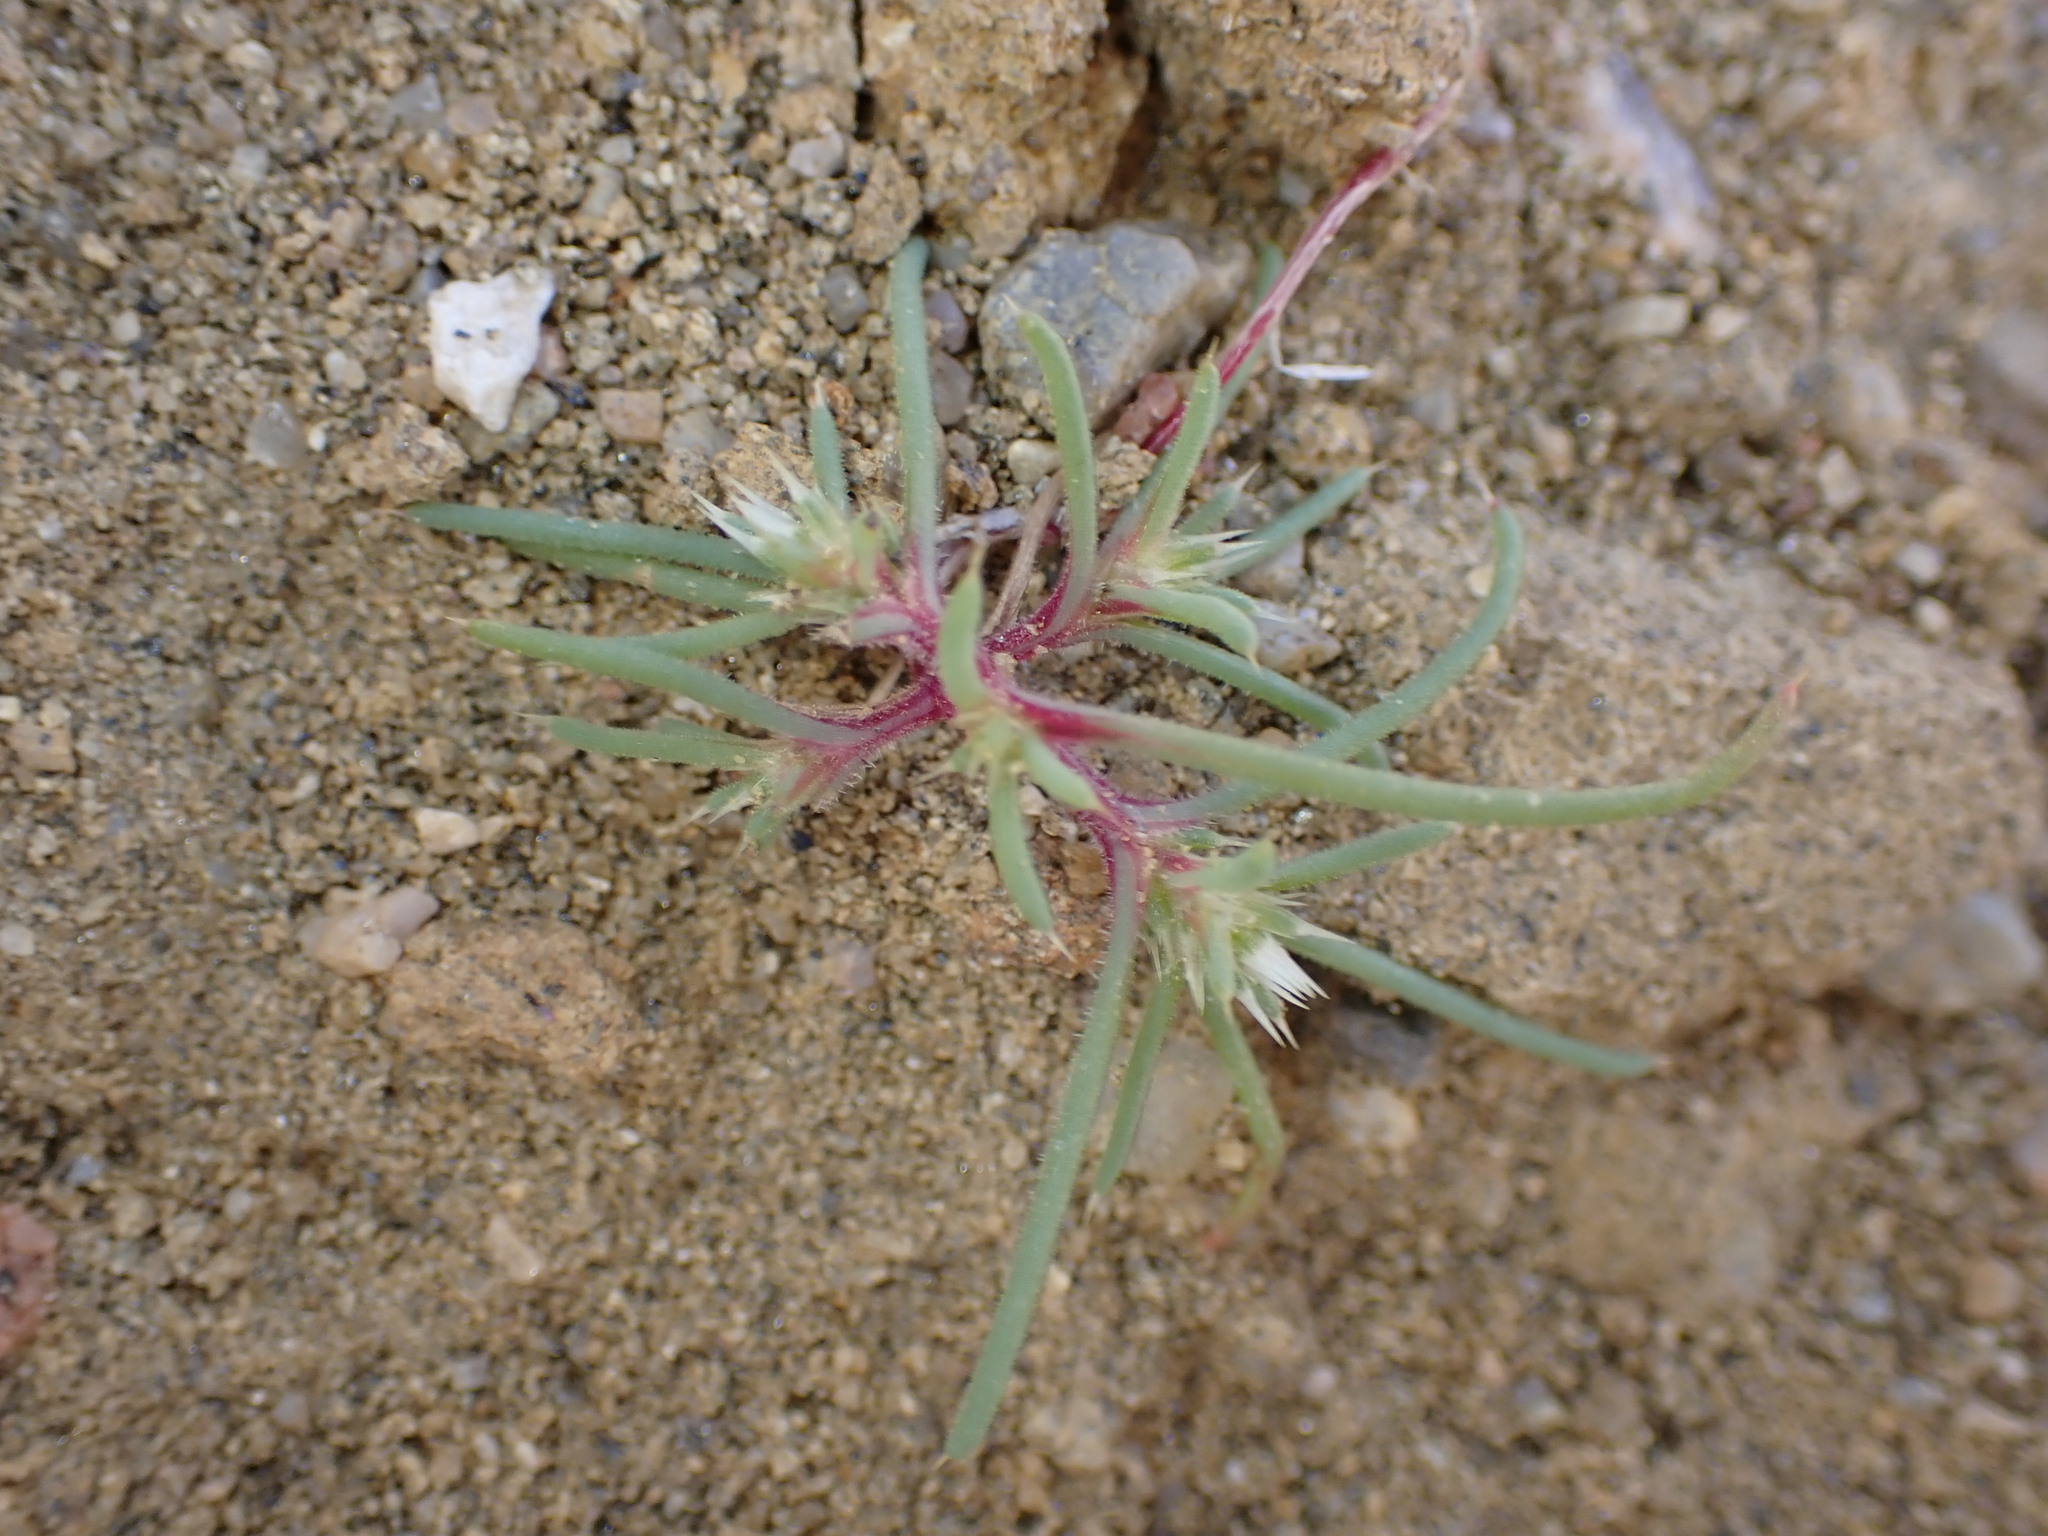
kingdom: Plantae
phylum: Tracheophyta
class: Magnoliopsida
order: Caryophyllales
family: Amaranthaceae
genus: Salsola
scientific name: Salsola tragus
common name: Prickly russian thistle
